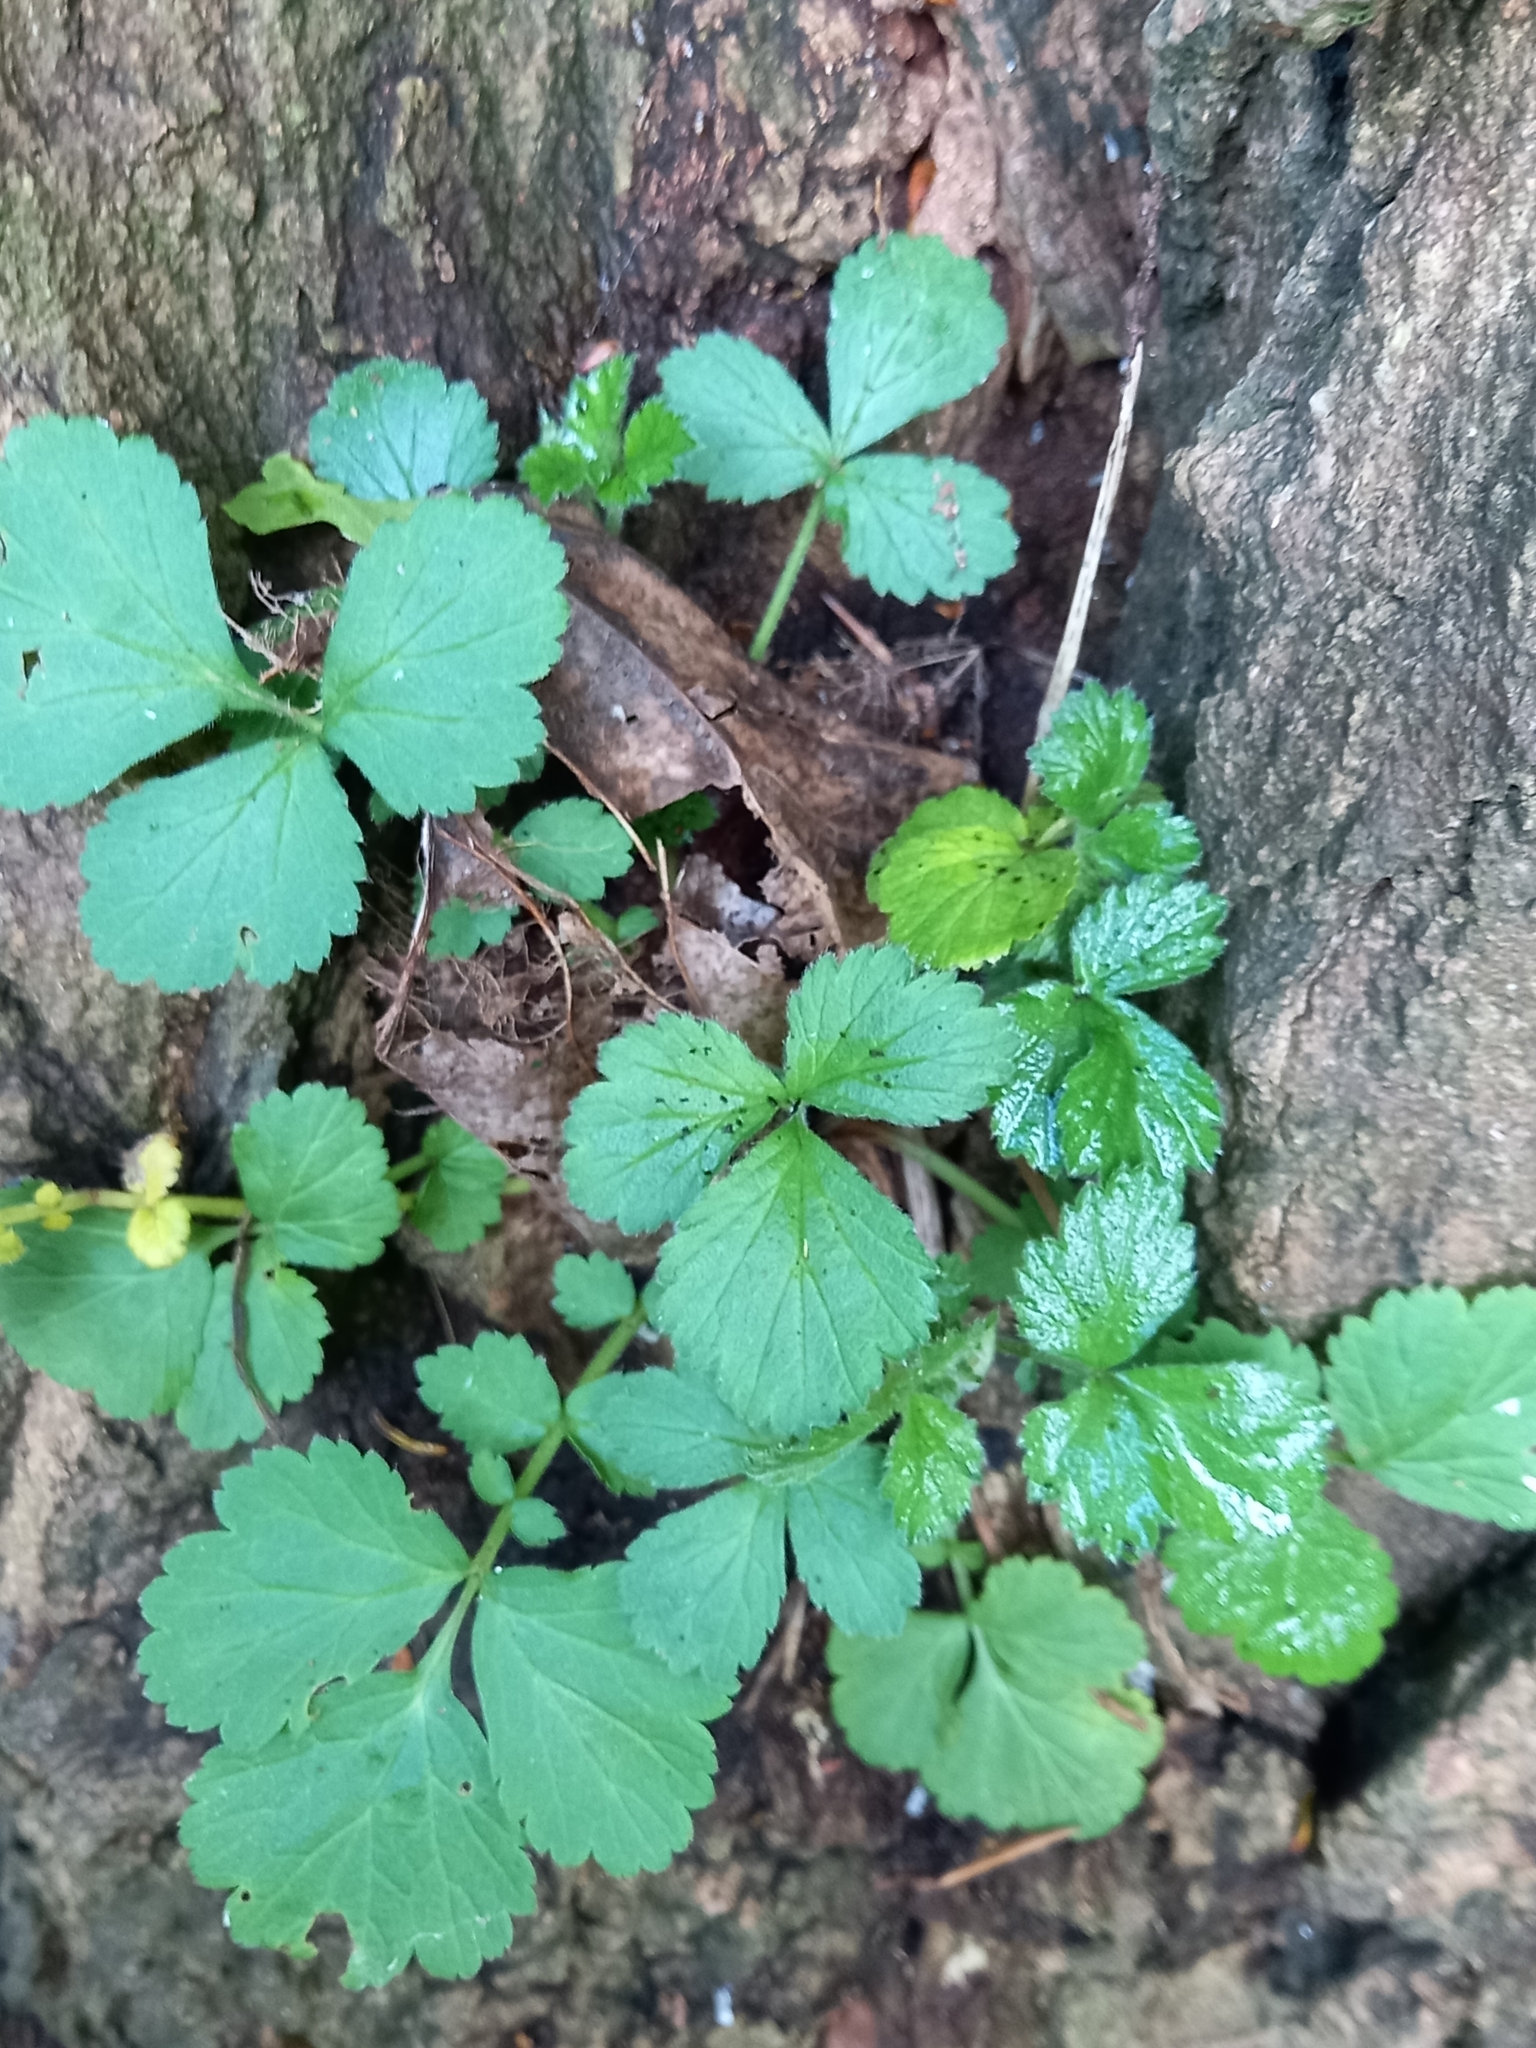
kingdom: Plantae
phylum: Tracheophyta
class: Magnoliopsida
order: Rosales
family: Rosaceae
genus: Geum
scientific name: Geum urbanum
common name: Wood avens
